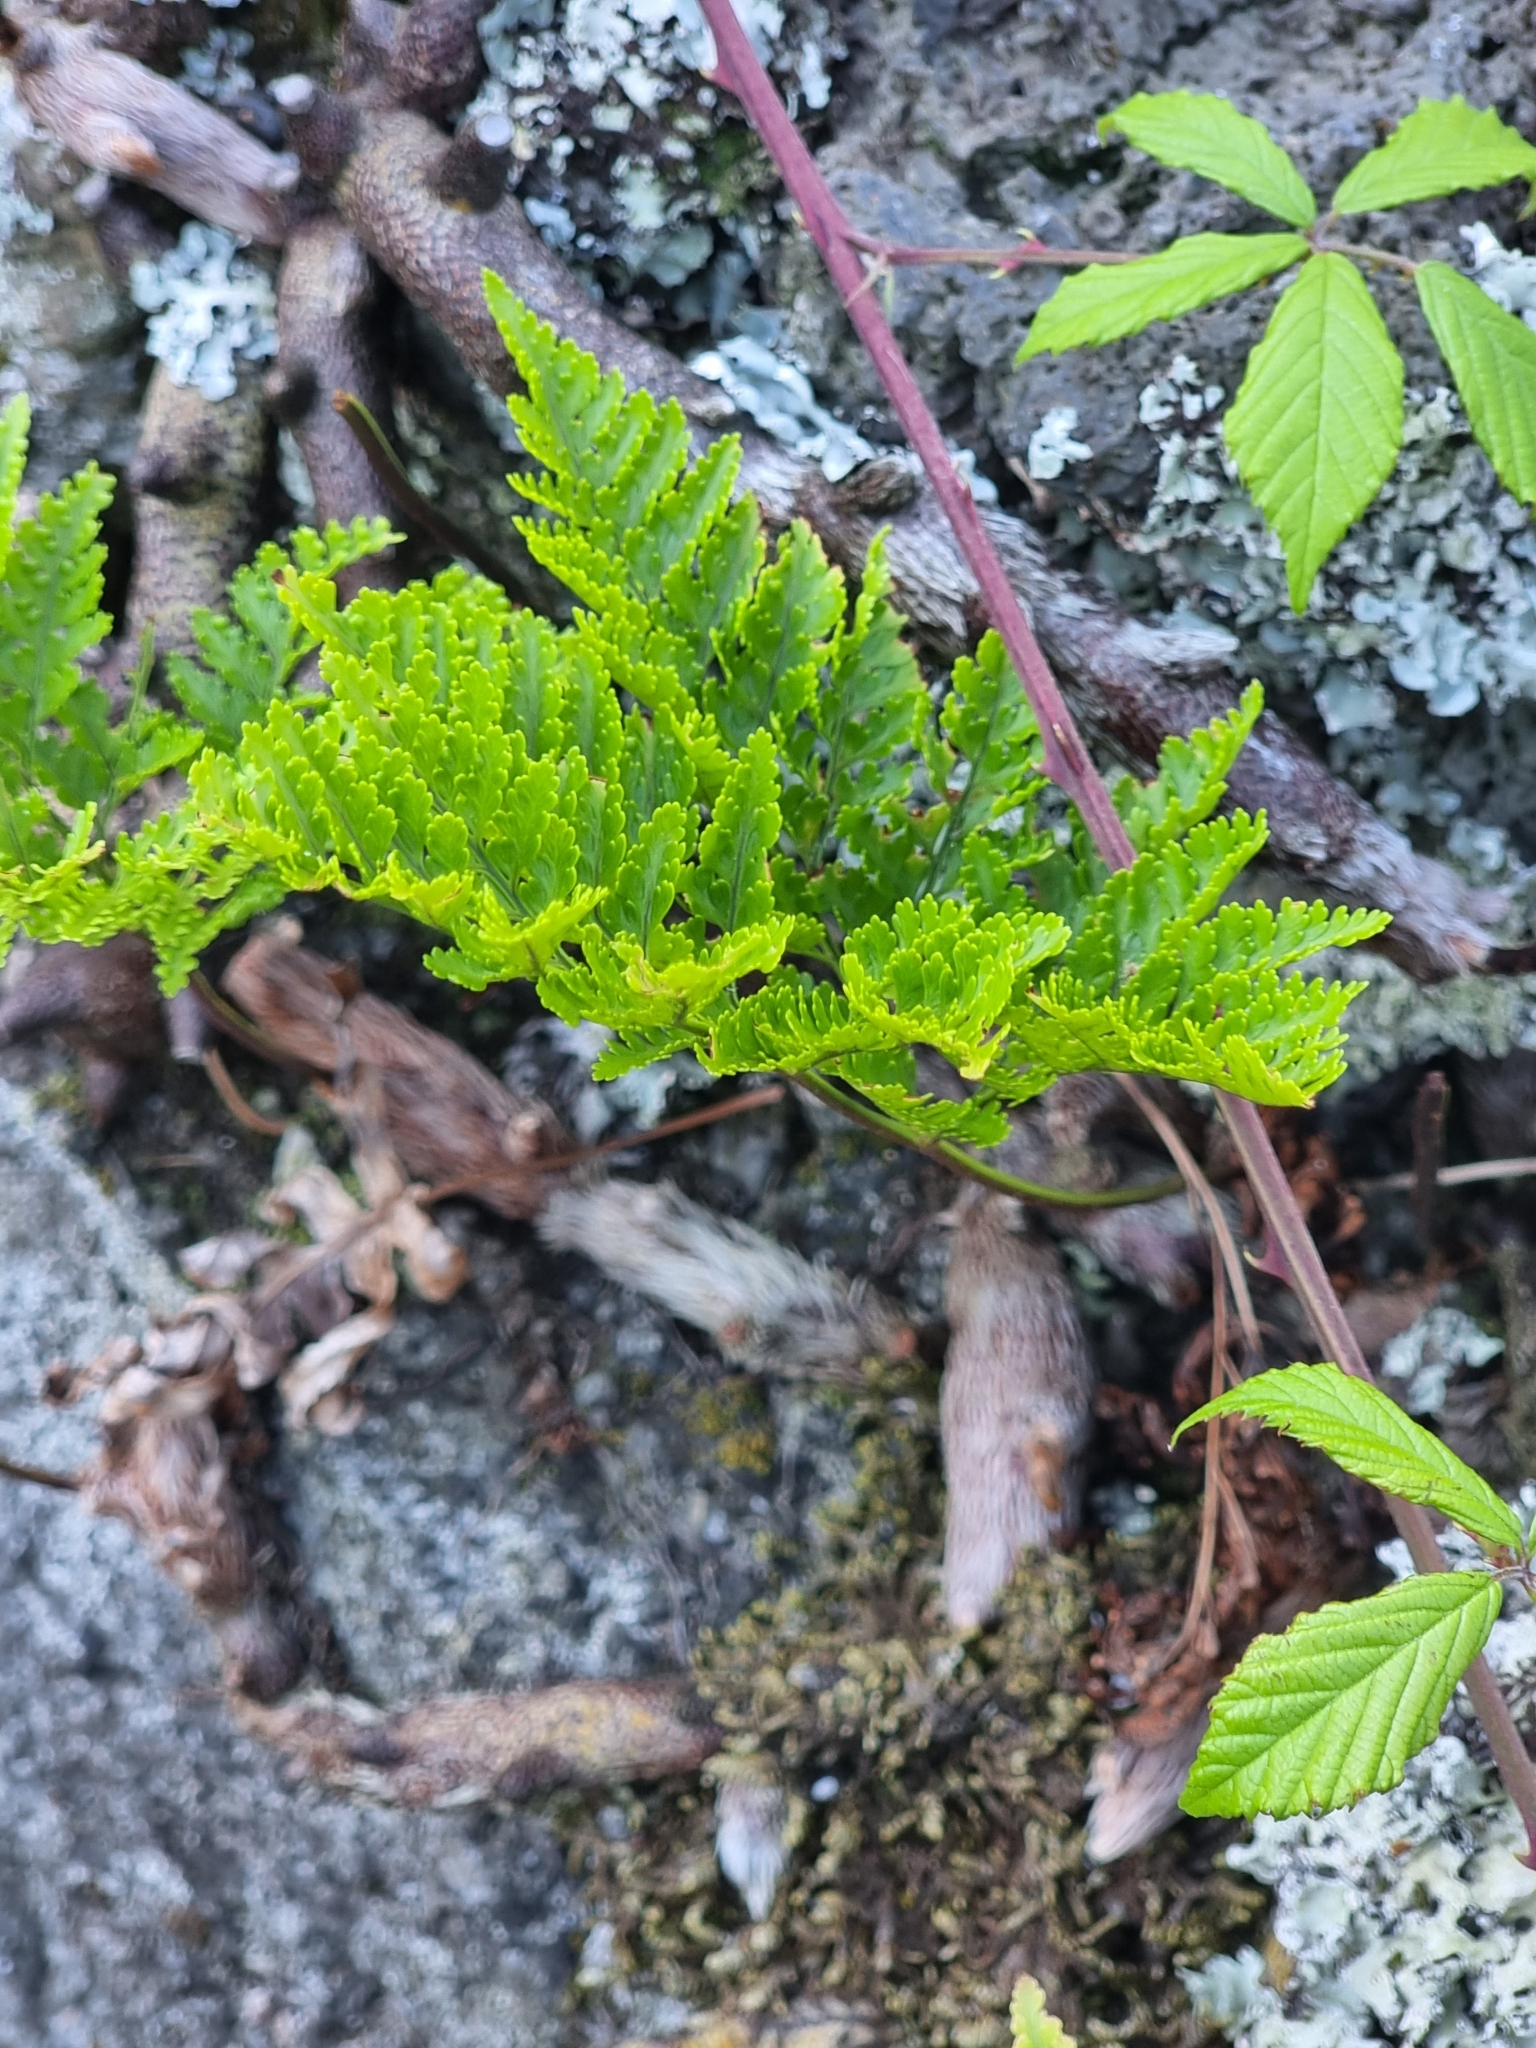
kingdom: Plantae
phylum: Tracheophyta
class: Polypodiopsida
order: Polypodiales
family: Davalliaceae
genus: Davallia
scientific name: Davallia canariensis
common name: Hare's-foot fern
